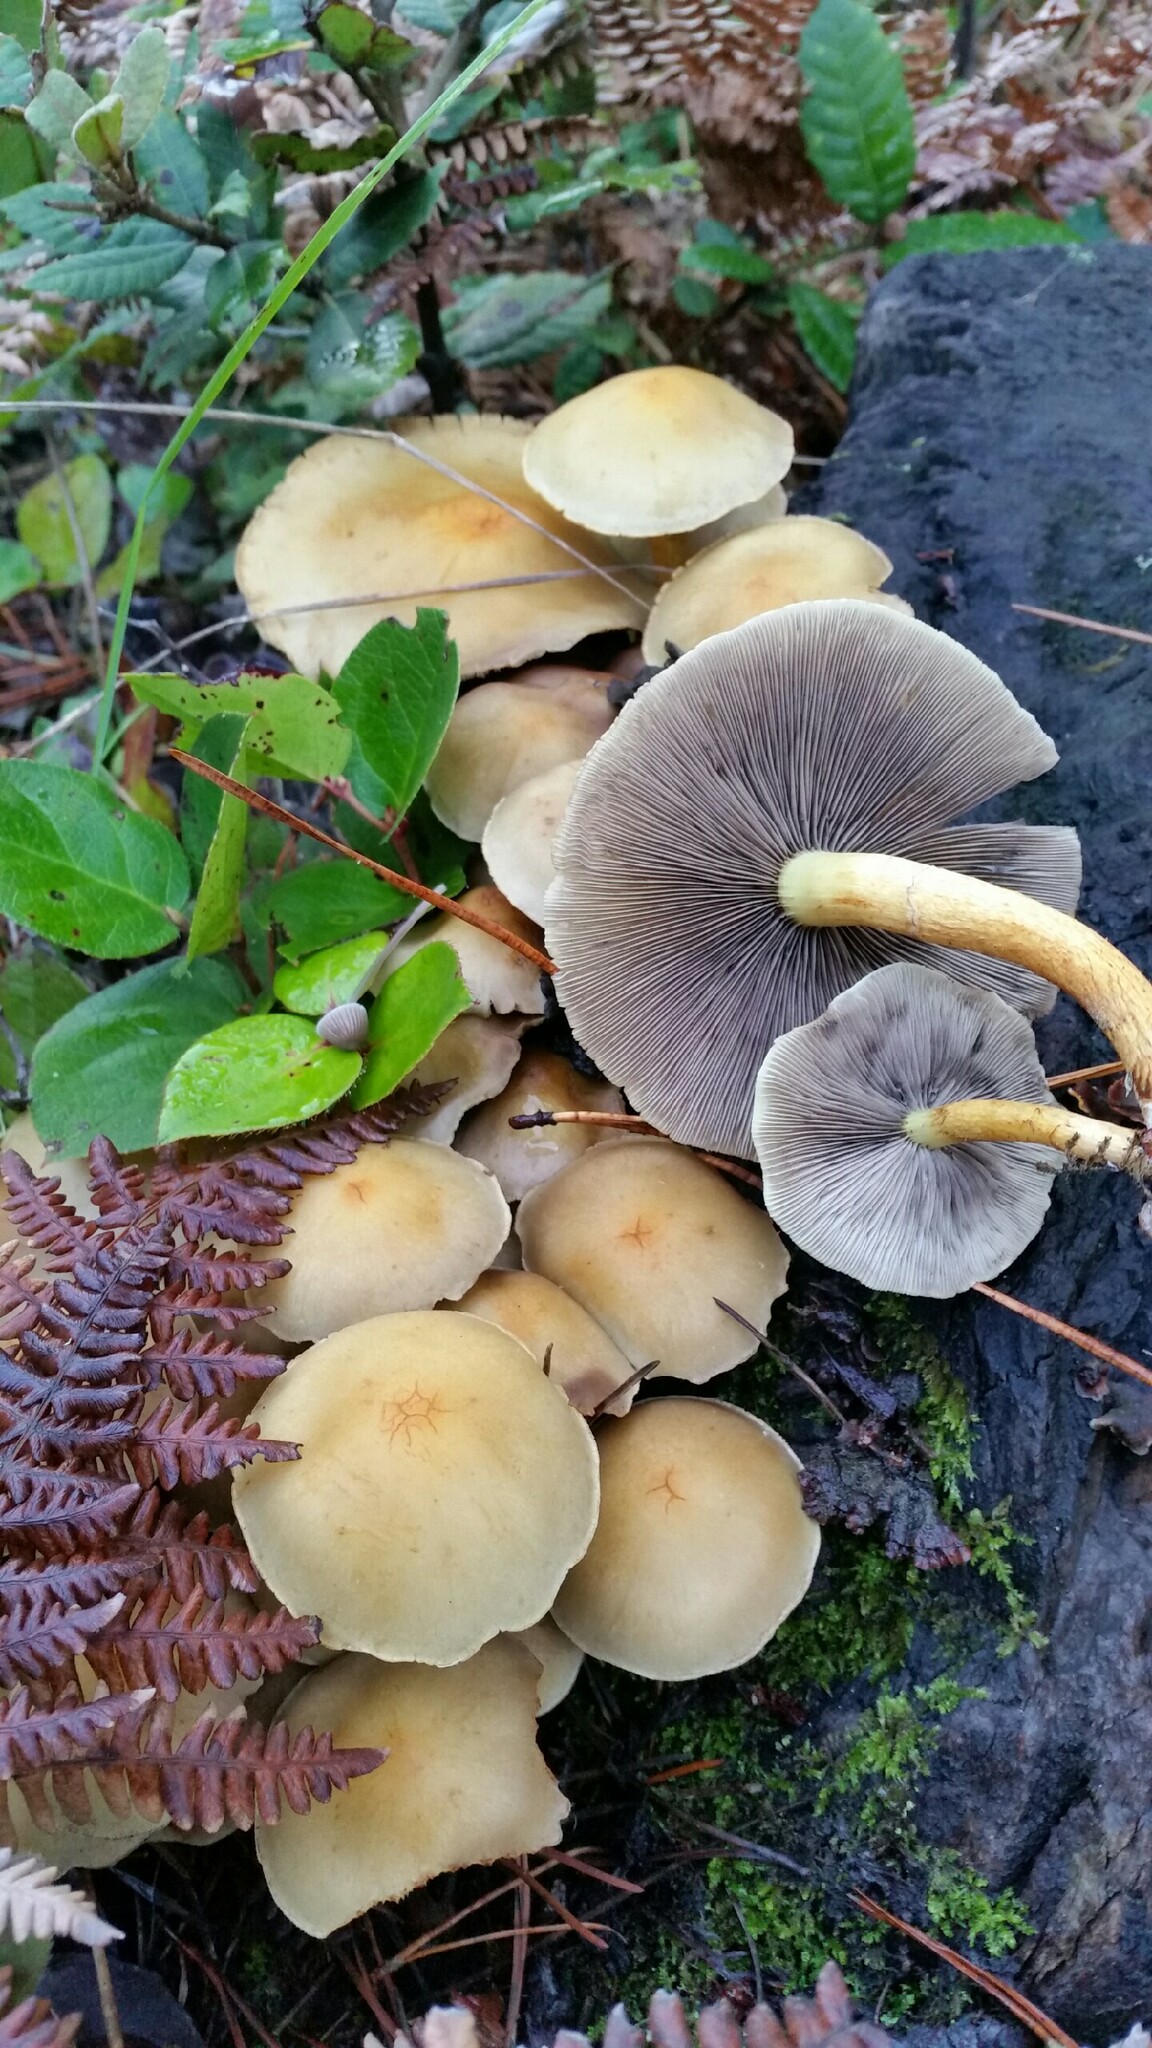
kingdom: Fungi
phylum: Basidiomycota
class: Agaricomycetes
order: Agaricales
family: Strophariaceae
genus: Hypholoma
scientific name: Hypholoma capnoides
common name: Conifer tuft
